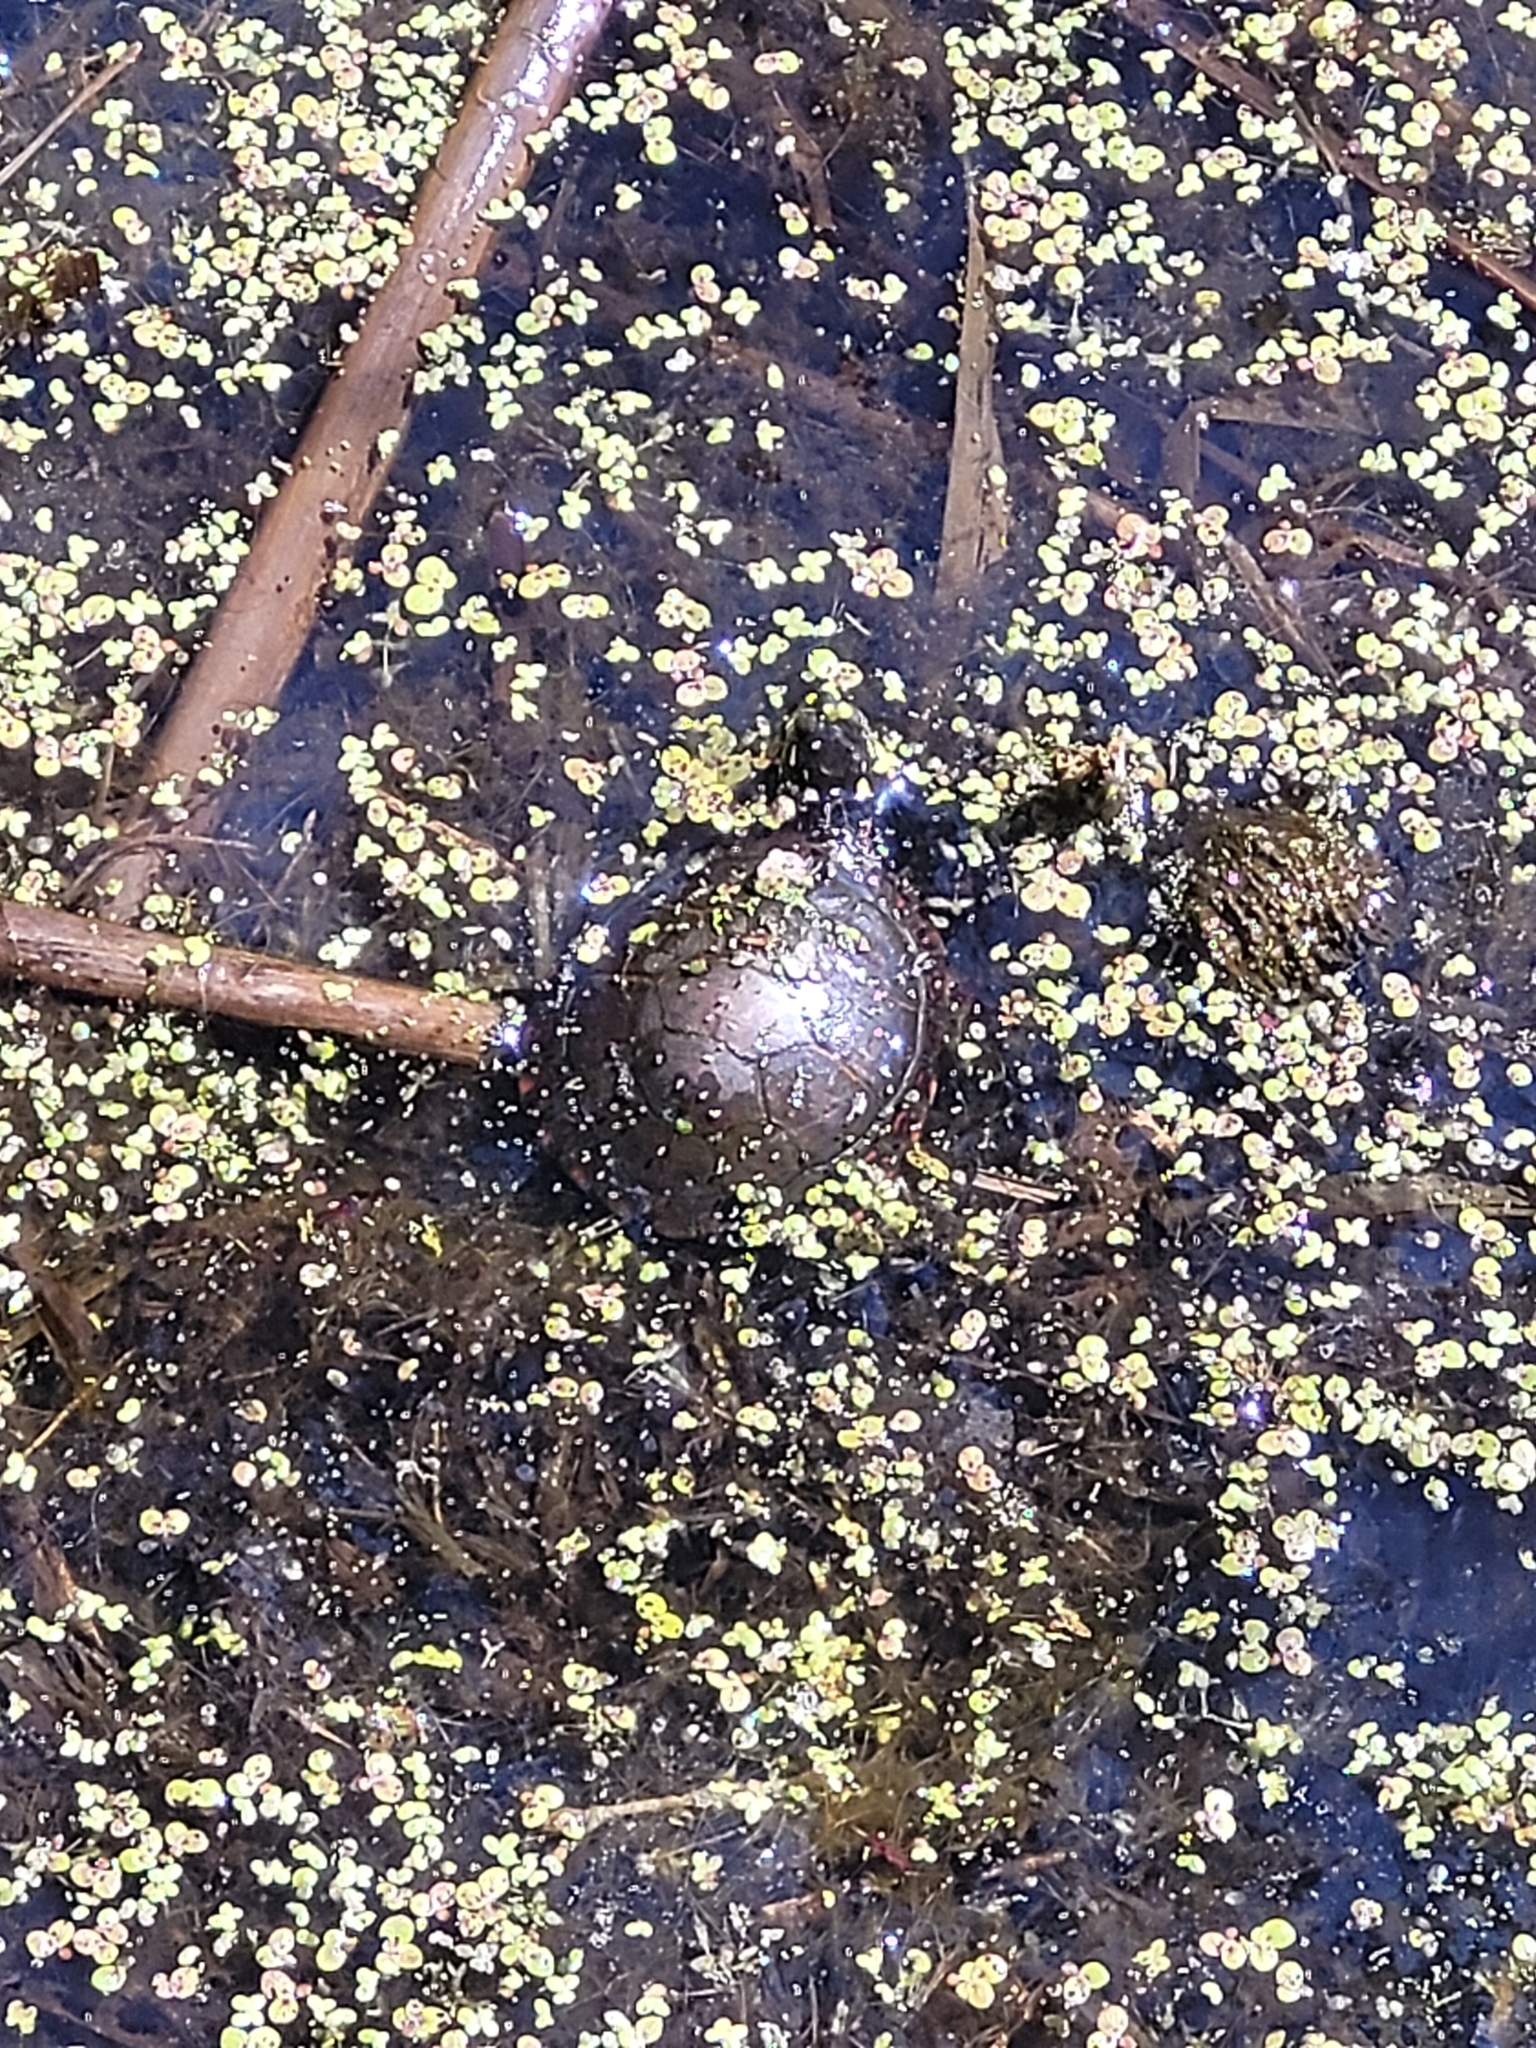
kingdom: Animalia
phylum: Chordata
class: Testudines
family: Emydidae
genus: Chrysemys
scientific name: Chrysemys picta
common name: Painted turtle
